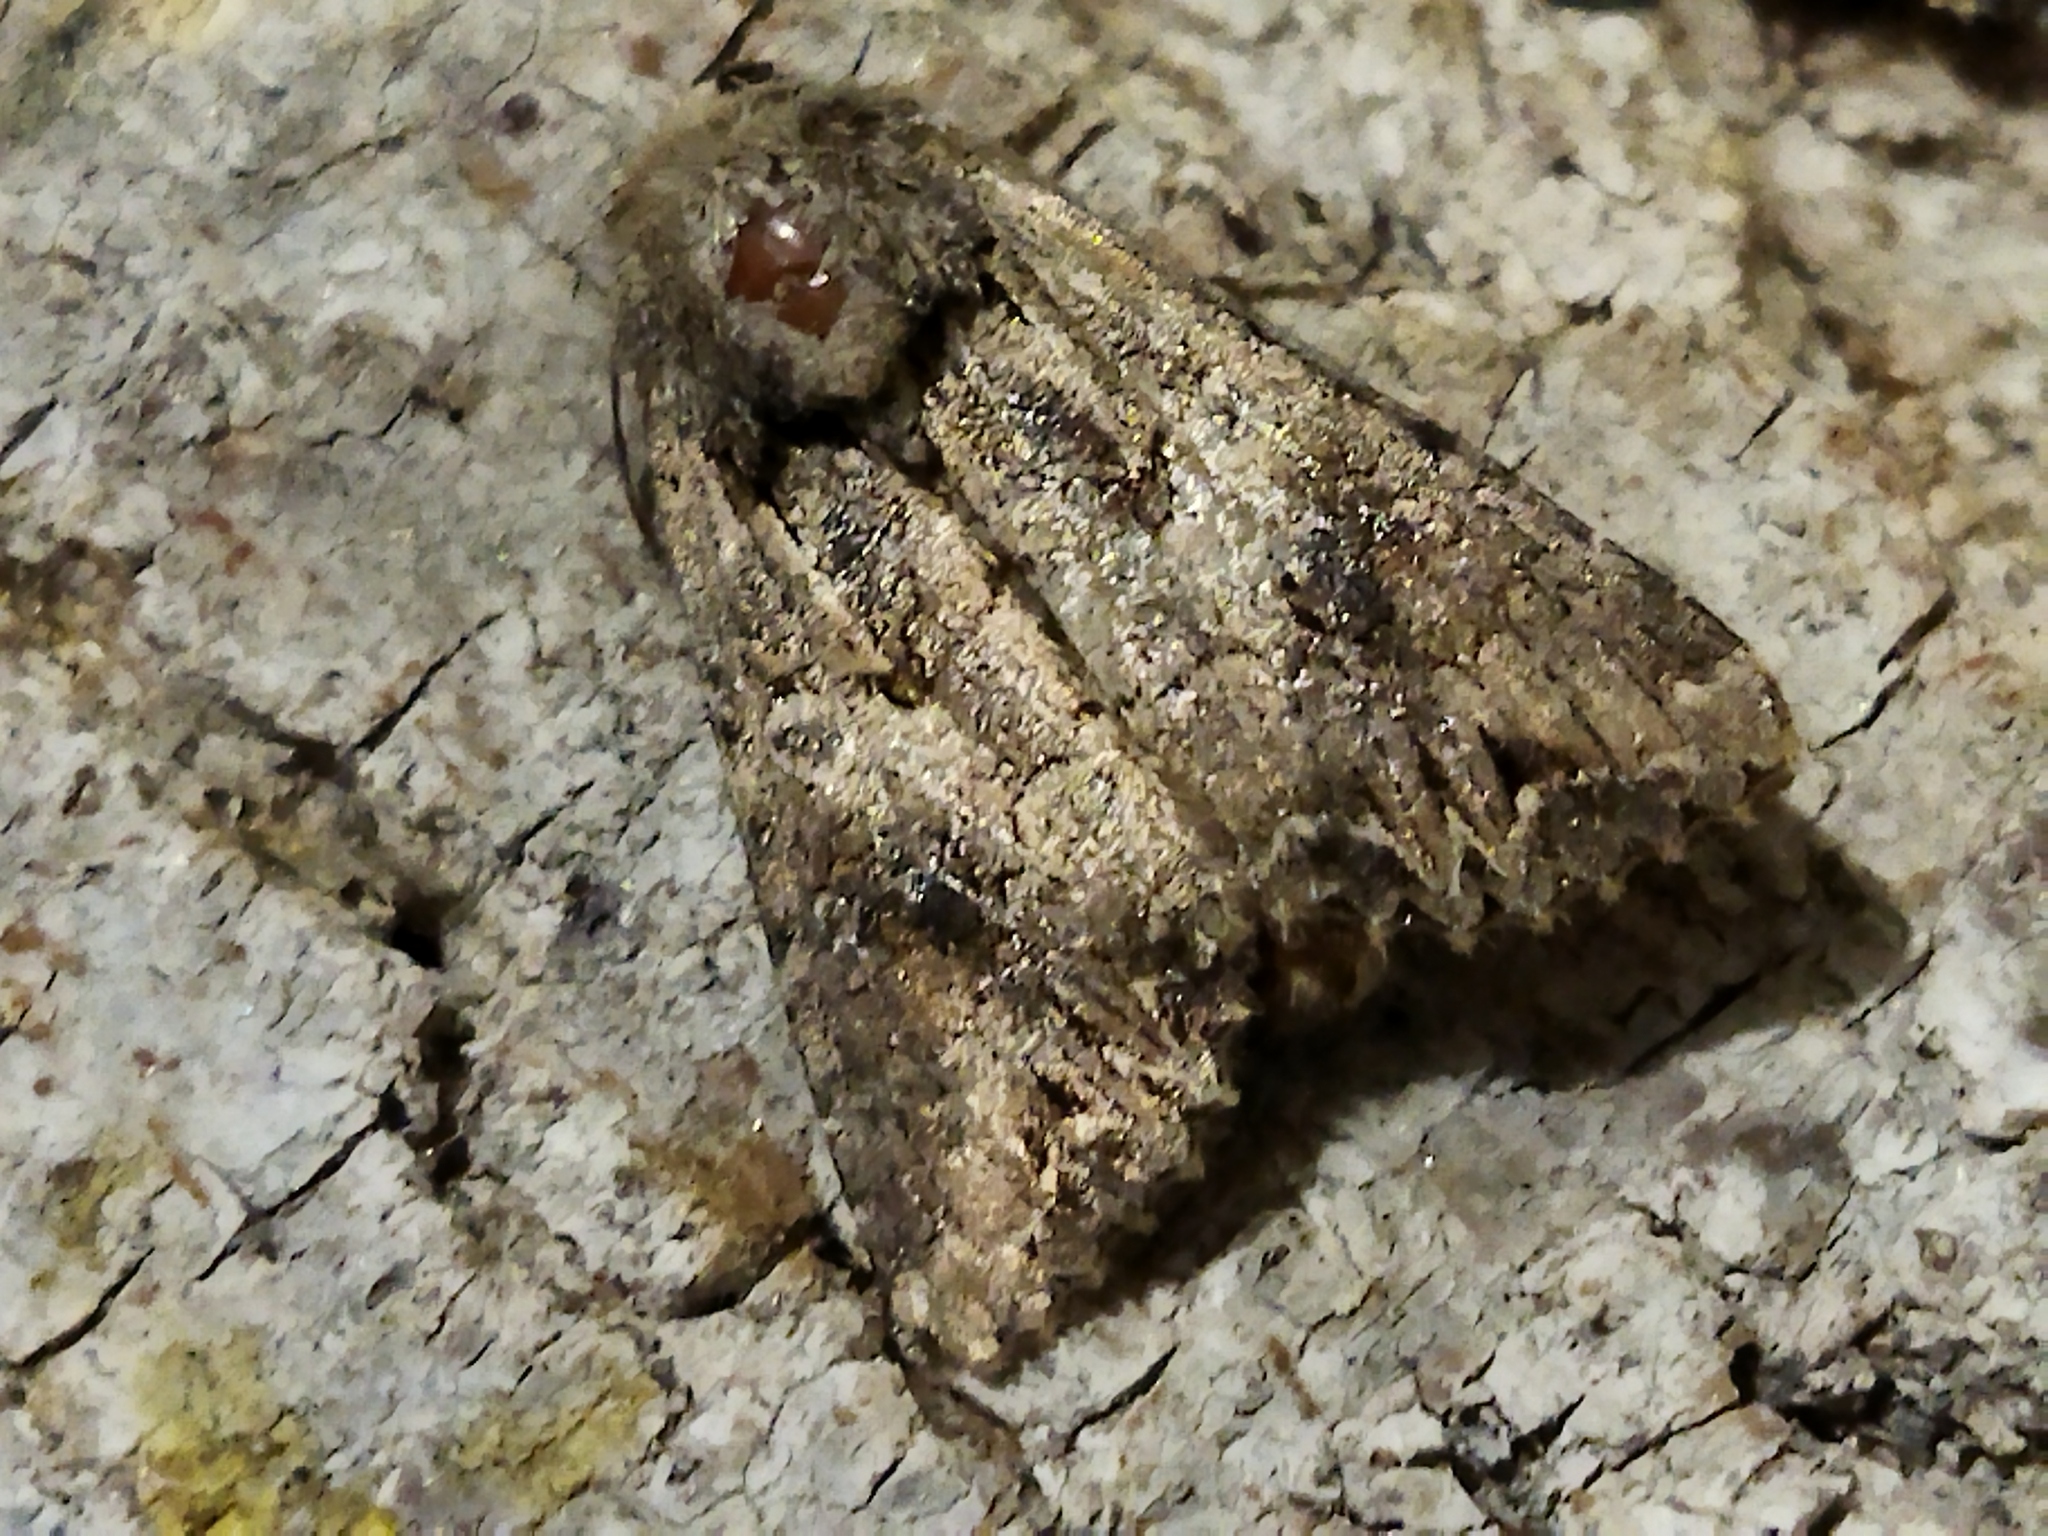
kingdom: Animalia
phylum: Arthropoda
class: Insecta
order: Lepidoptera
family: Noctuidae
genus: Anarta
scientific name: Anarta
